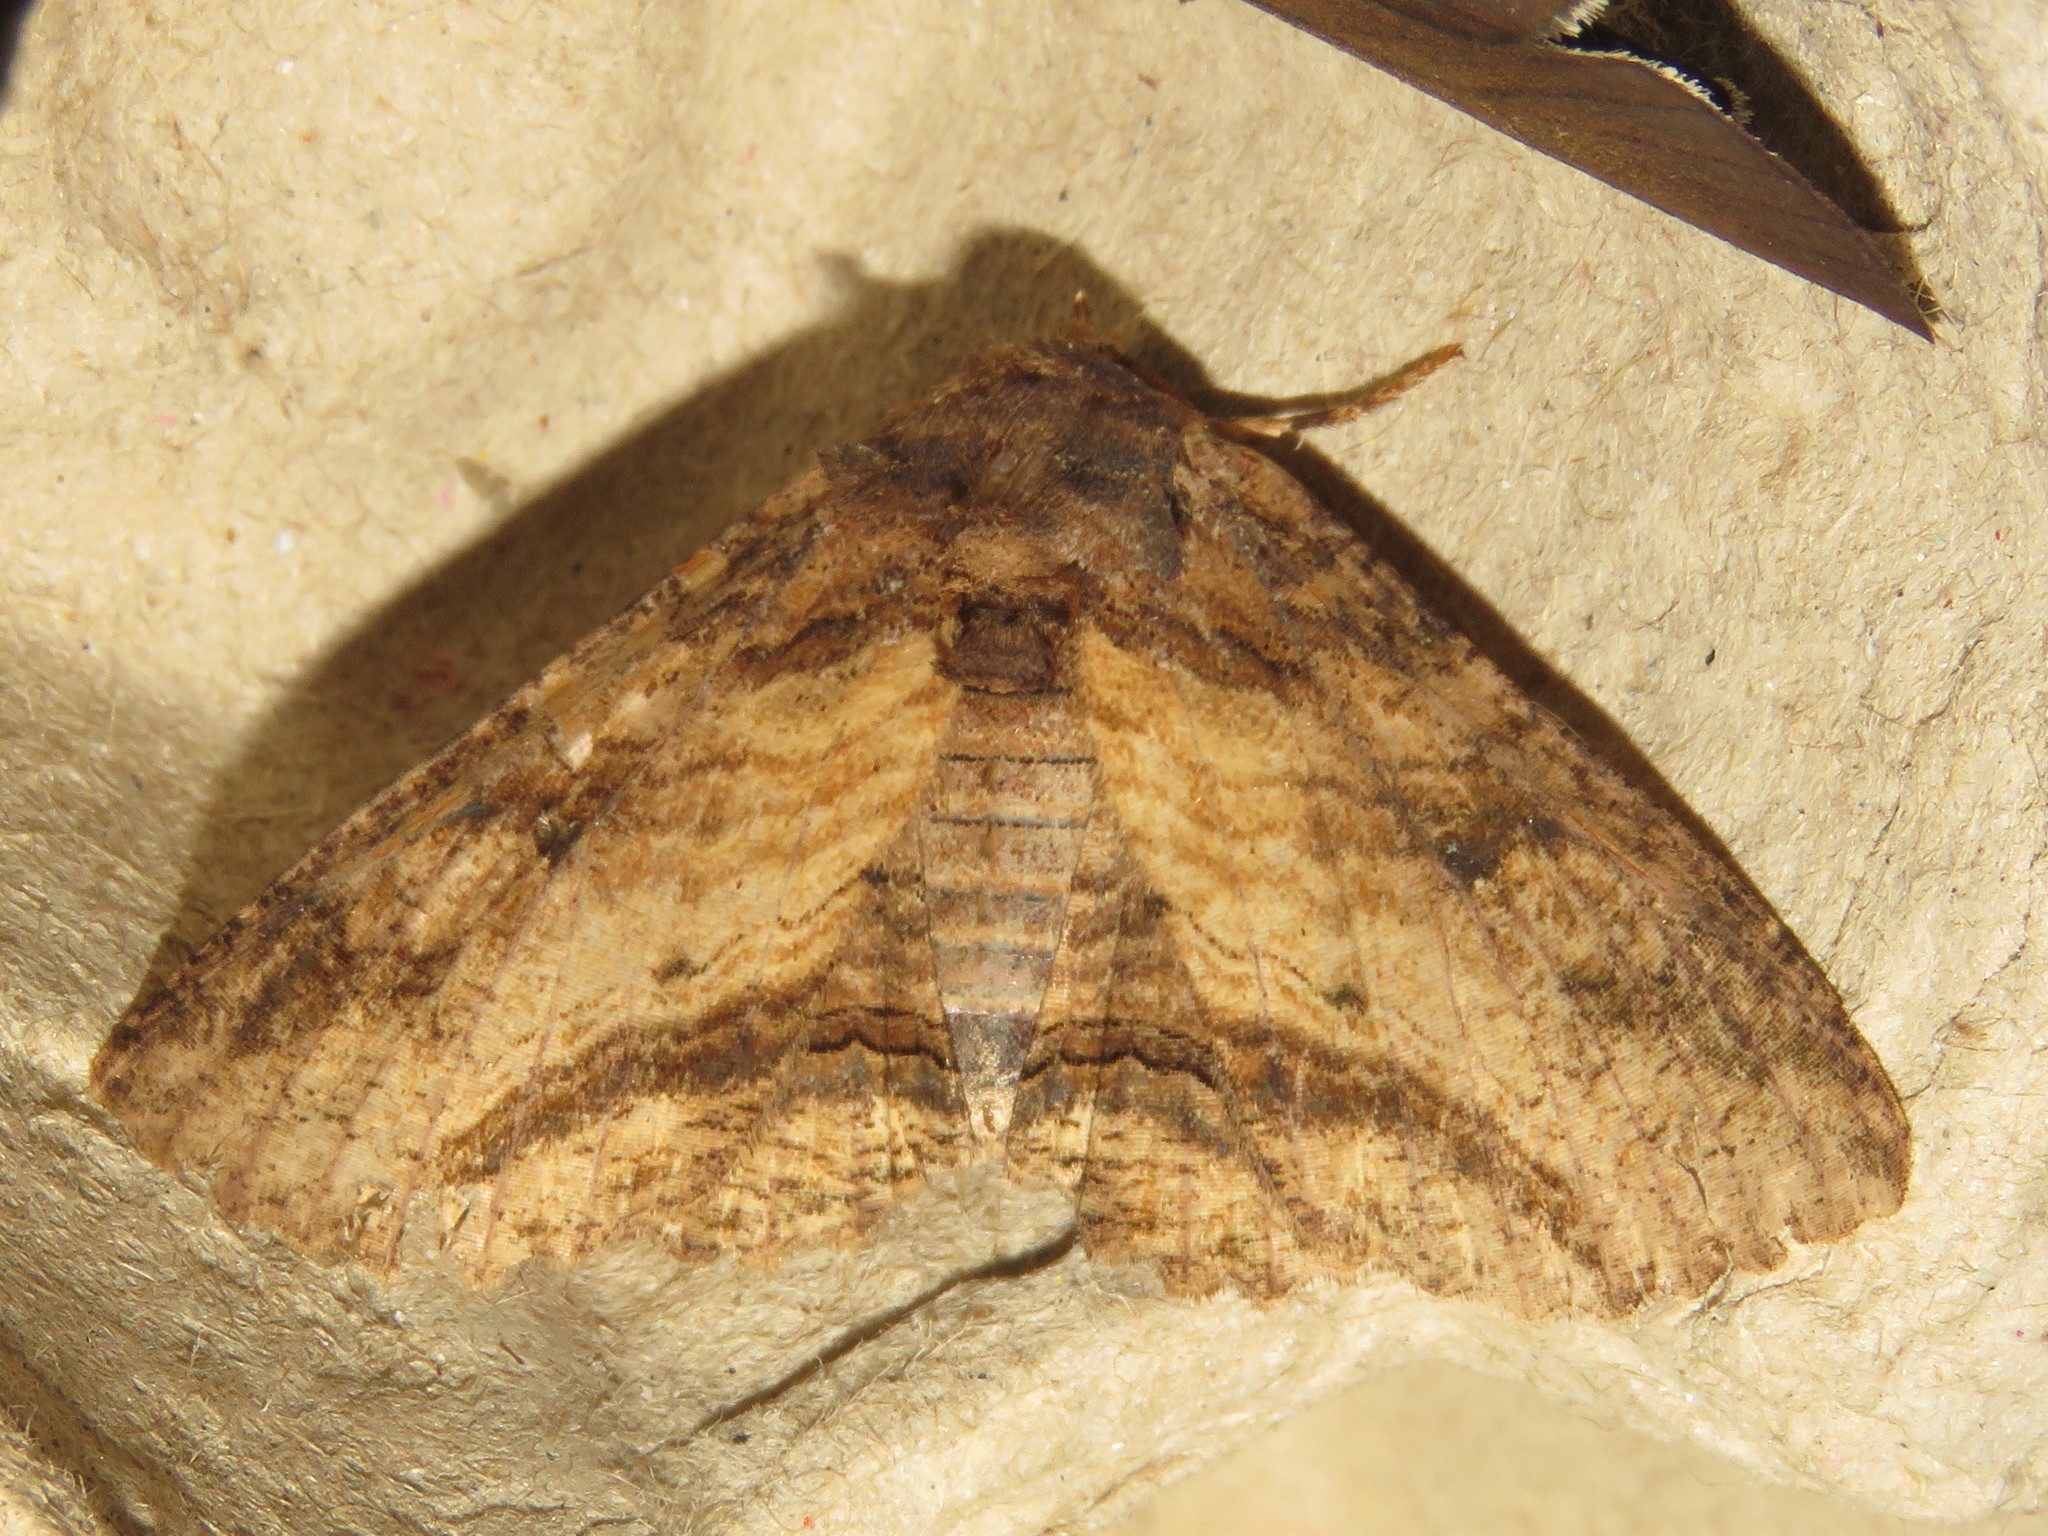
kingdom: Animalia
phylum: Arthropoda
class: Insecta
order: Lepidoptera
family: Erebidae
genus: Zale
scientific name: Zale minerea
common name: Colorful zale moth
